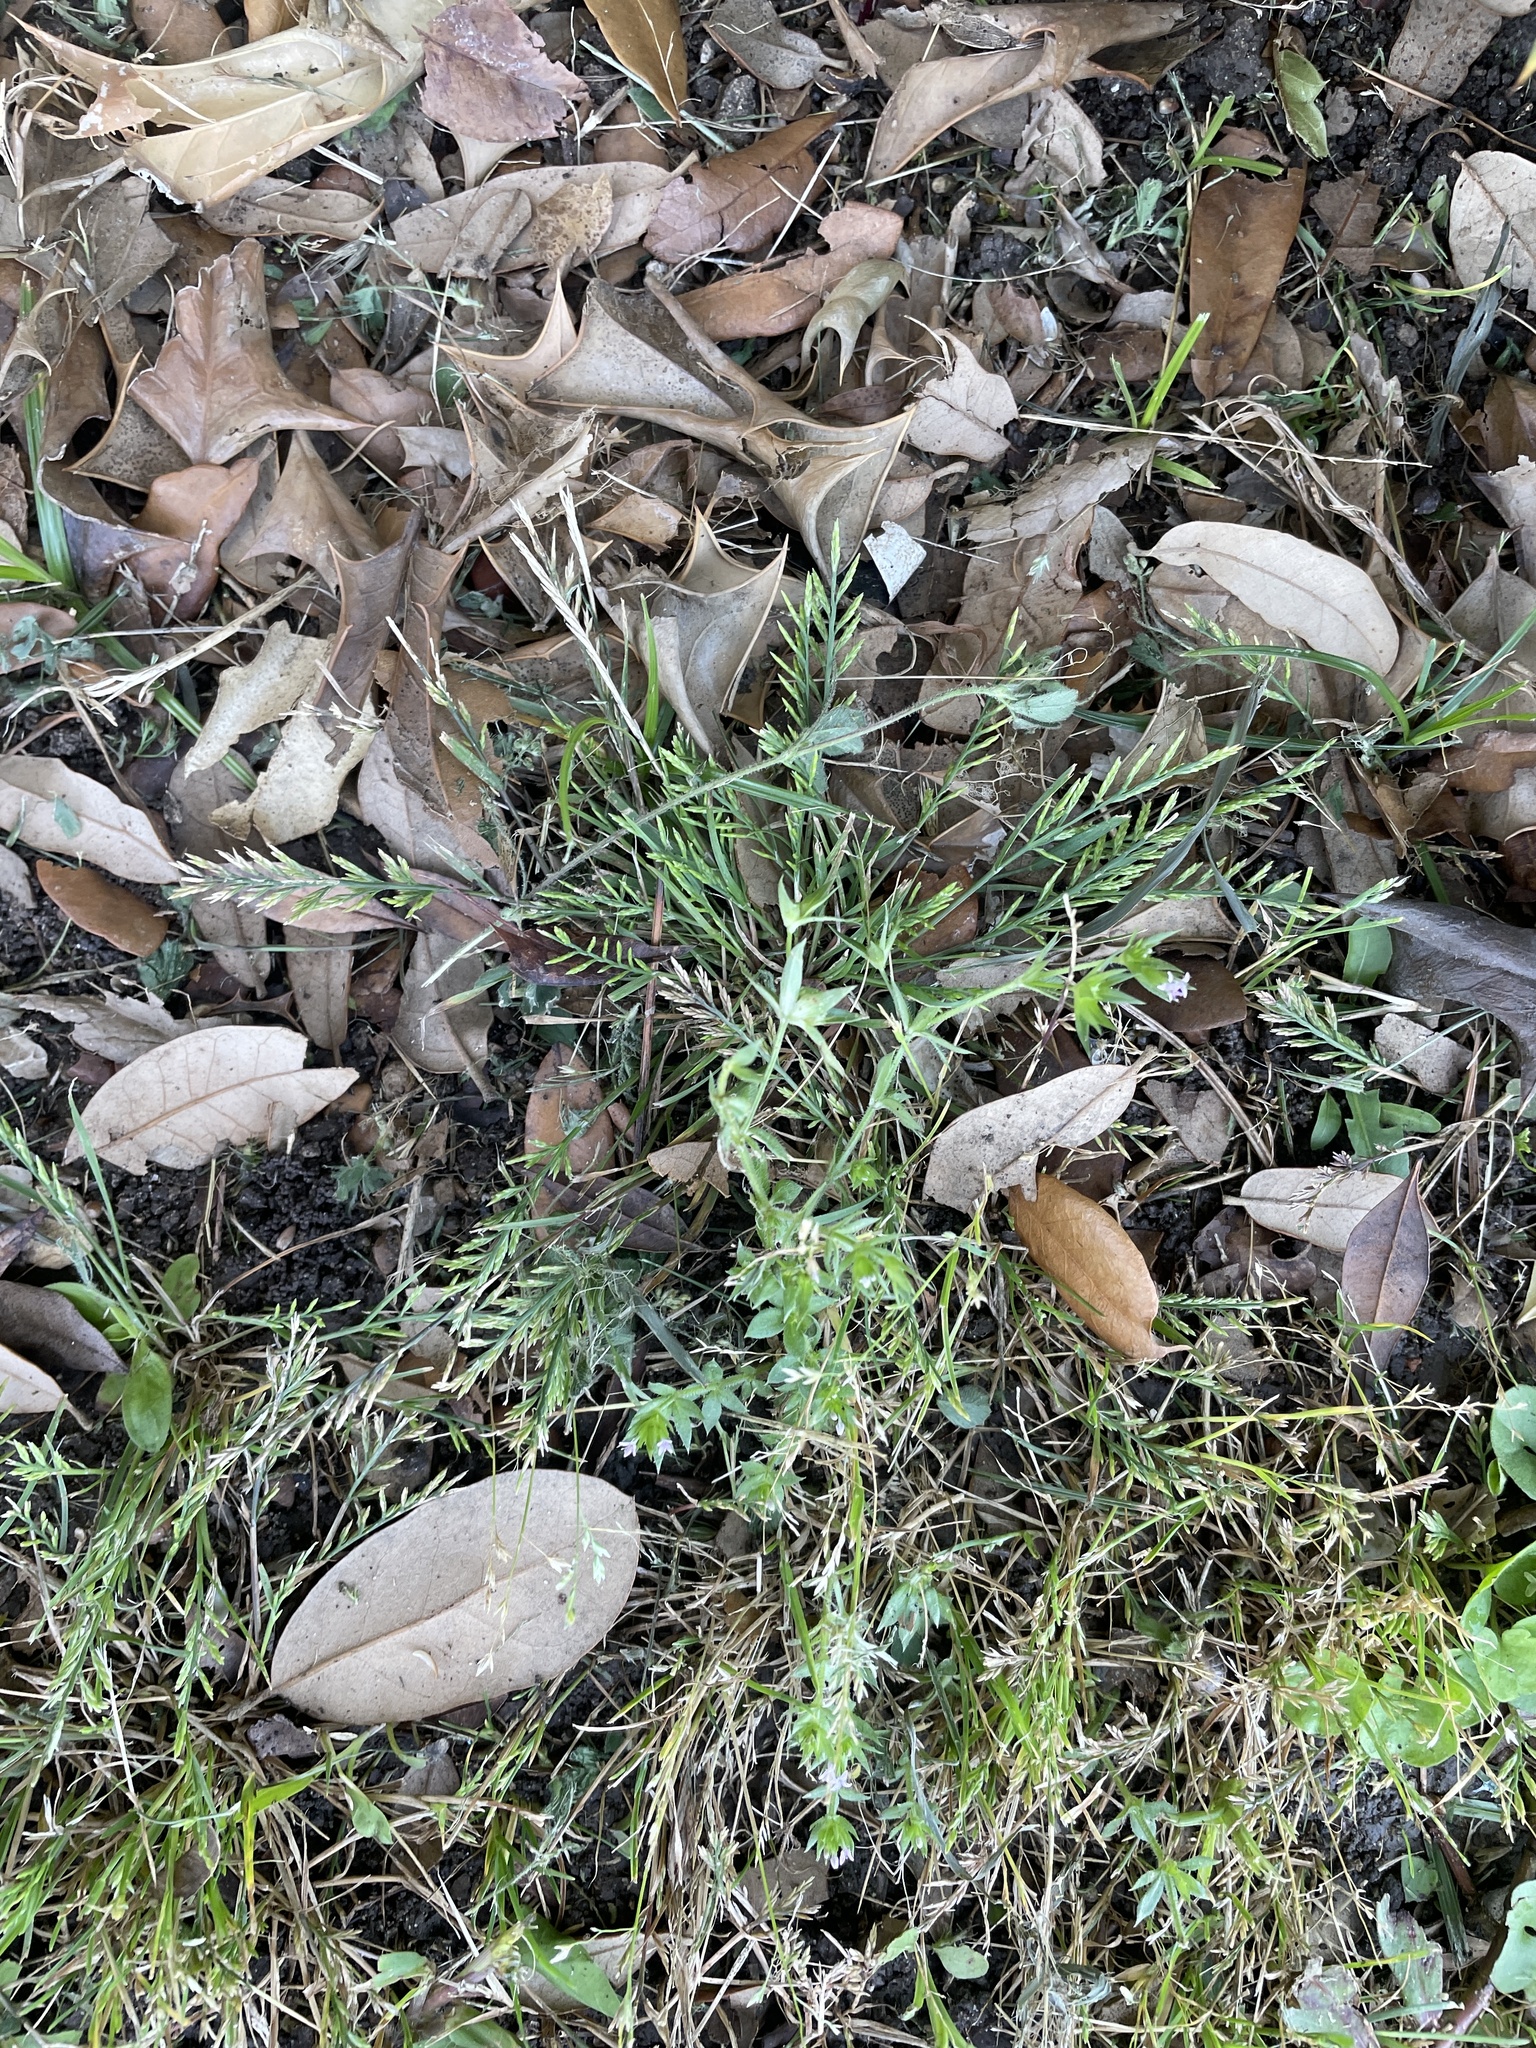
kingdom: Plantae
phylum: Tracheophyta
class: Liliopsida
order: Poales
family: Poaceae
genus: Catapodium
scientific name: Catapodium rigidum
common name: Fern-grass
